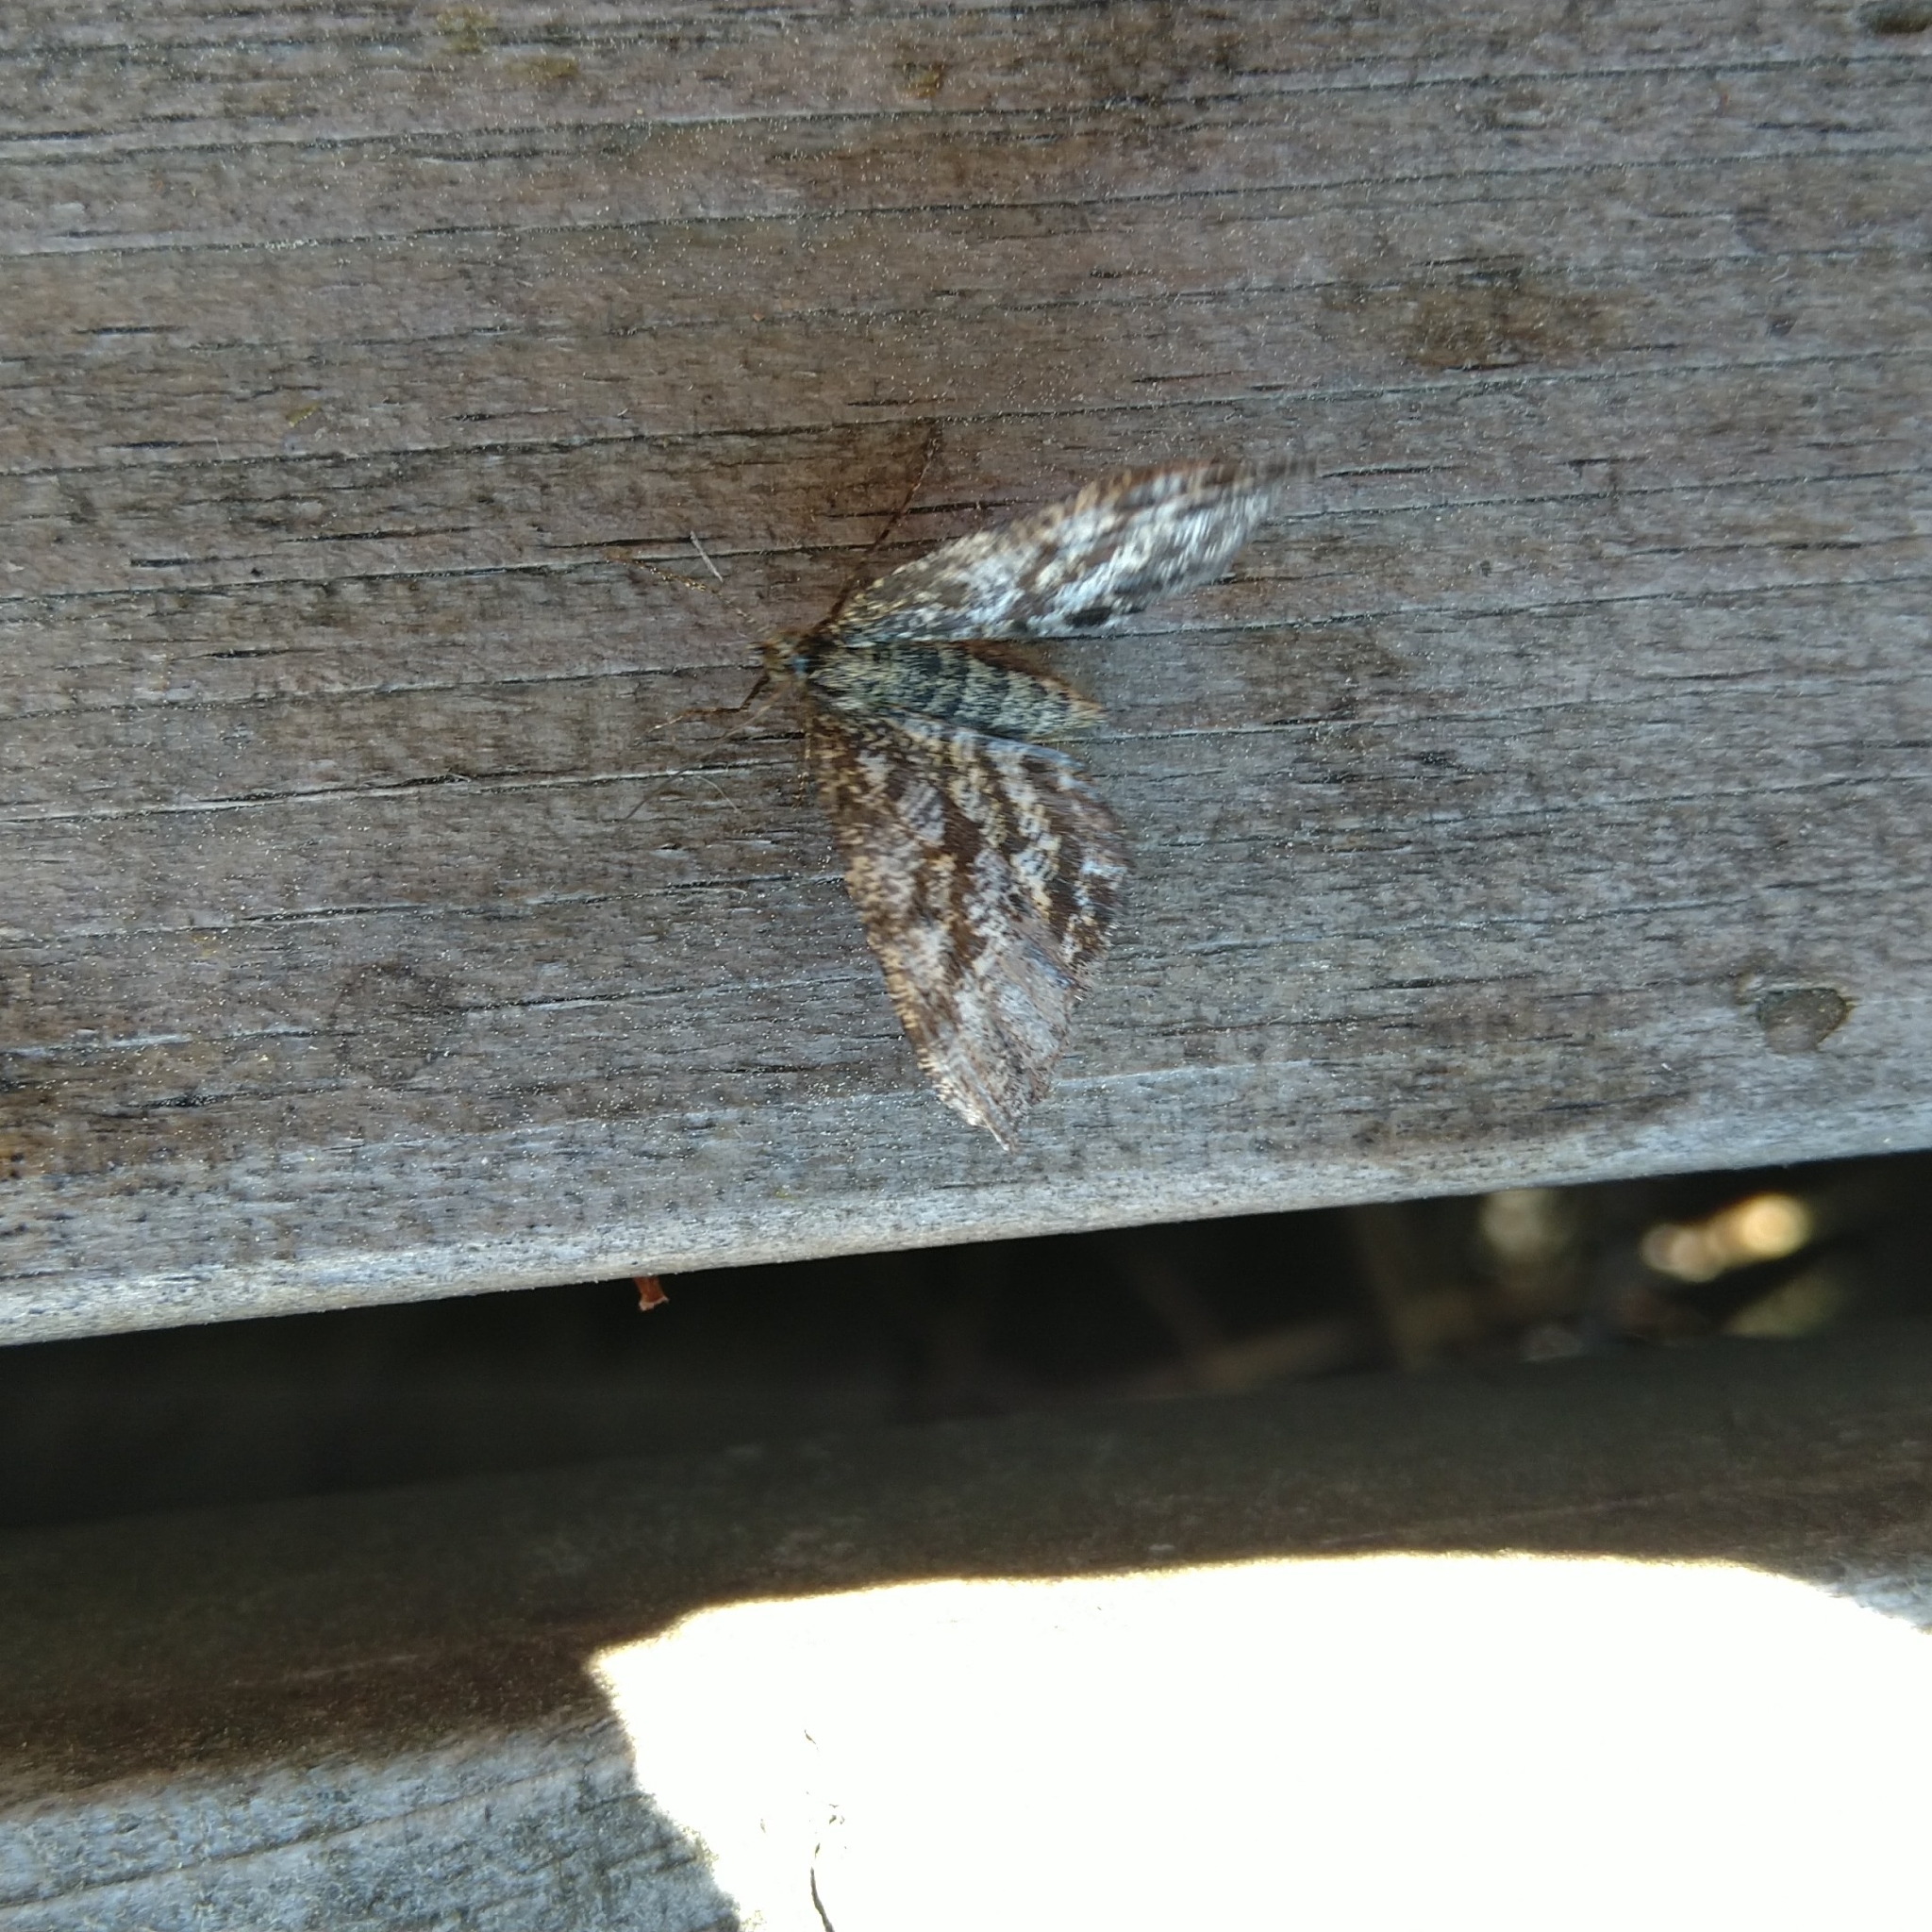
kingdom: Animalia
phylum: Arthropoda
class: Insecta
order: Lepidoptera
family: Geometridae
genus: Ematurga
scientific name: Ematurga atomaria
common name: Common heath
